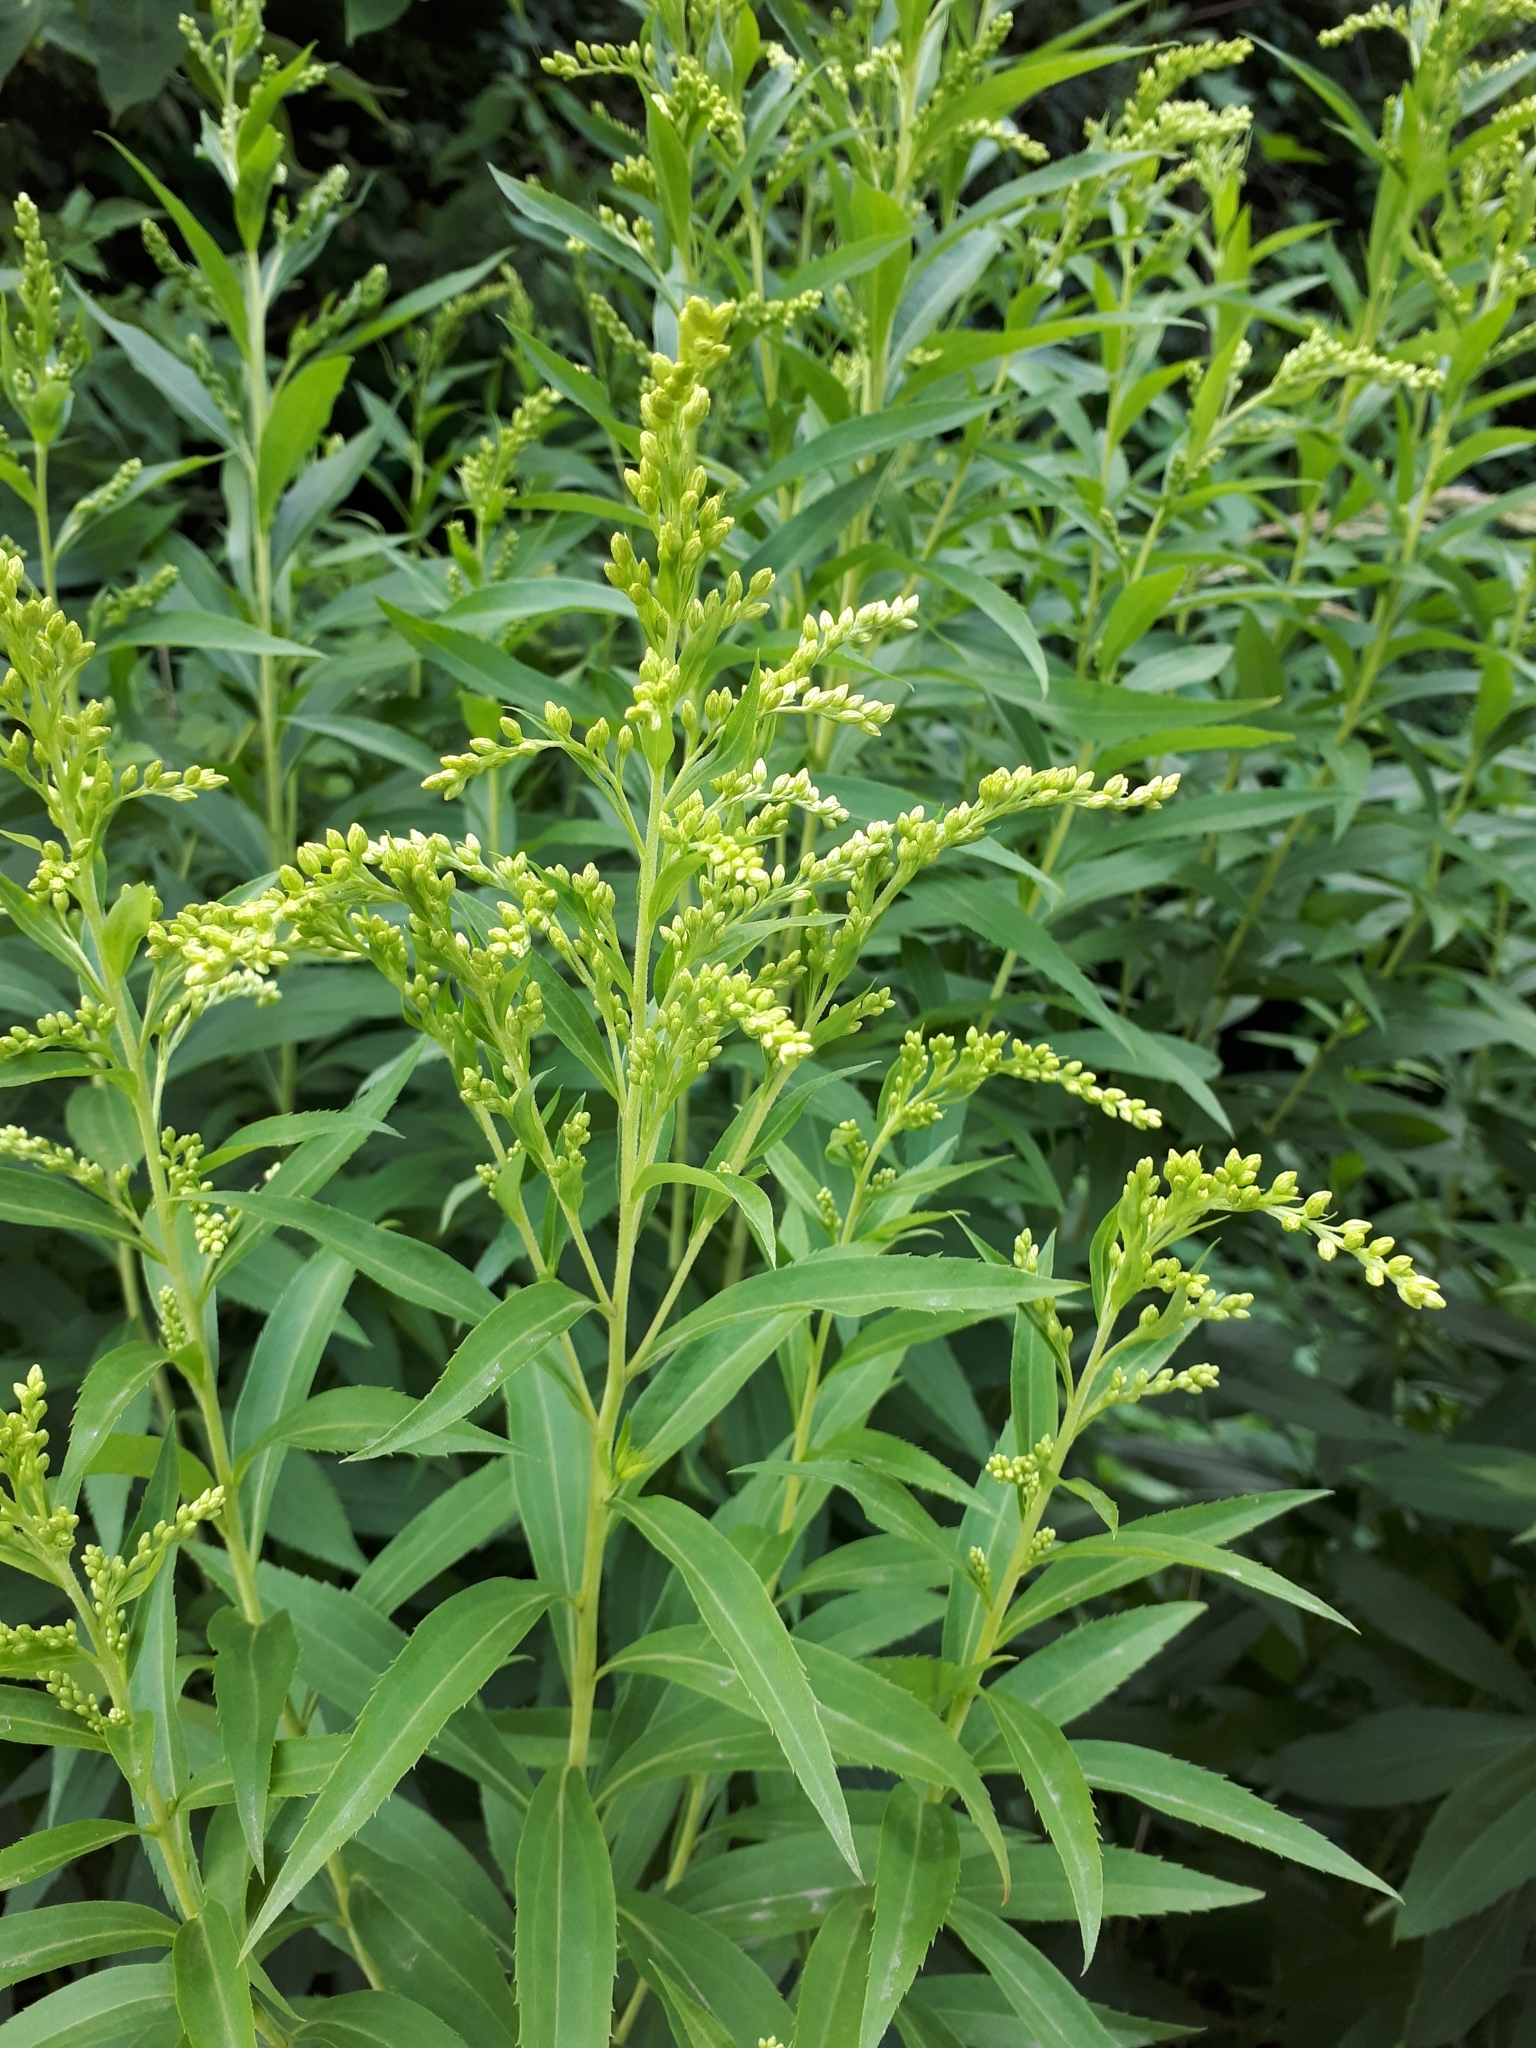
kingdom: Plantae
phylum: Tracheophyta
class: Magnoliopsida
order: Asterales
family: Asteraceae
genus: Solidago
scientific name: Solidago canadensis
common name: Canada goldenrod
